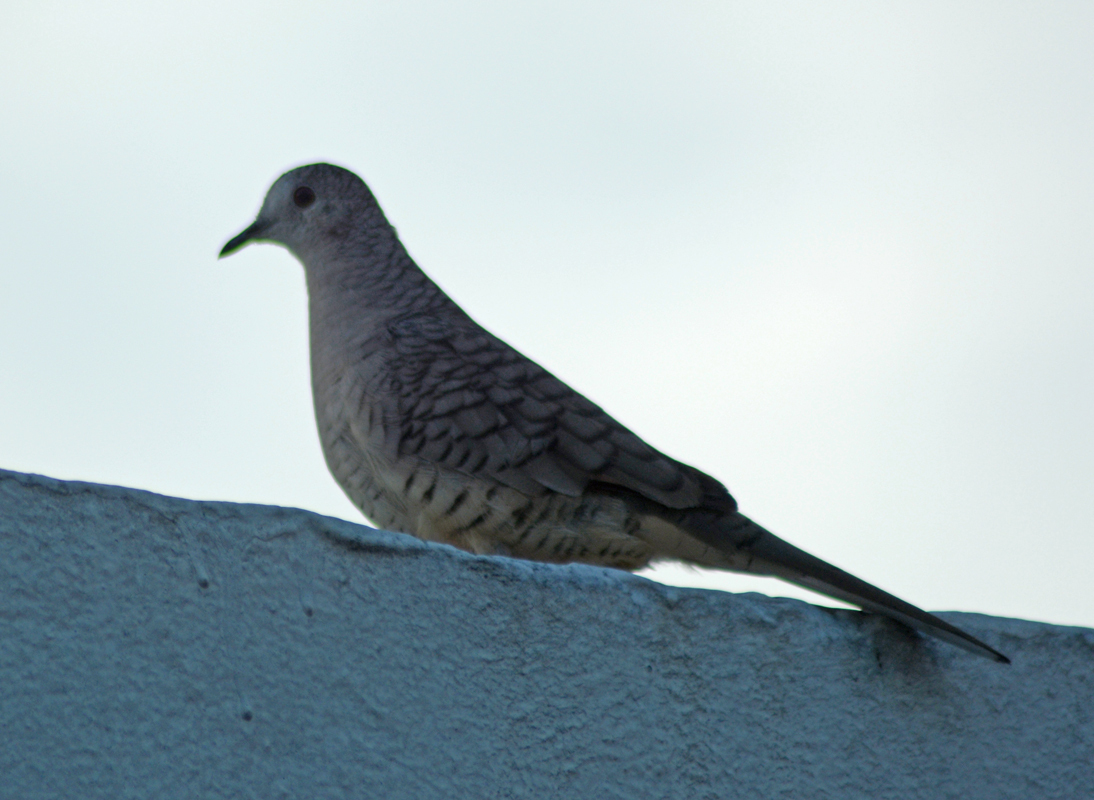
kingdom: Animalia
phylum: Chordata
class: Aves
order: Columbiformes
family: Columbidae
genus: Columbina
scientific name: Columbina inca
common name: Inca dove
